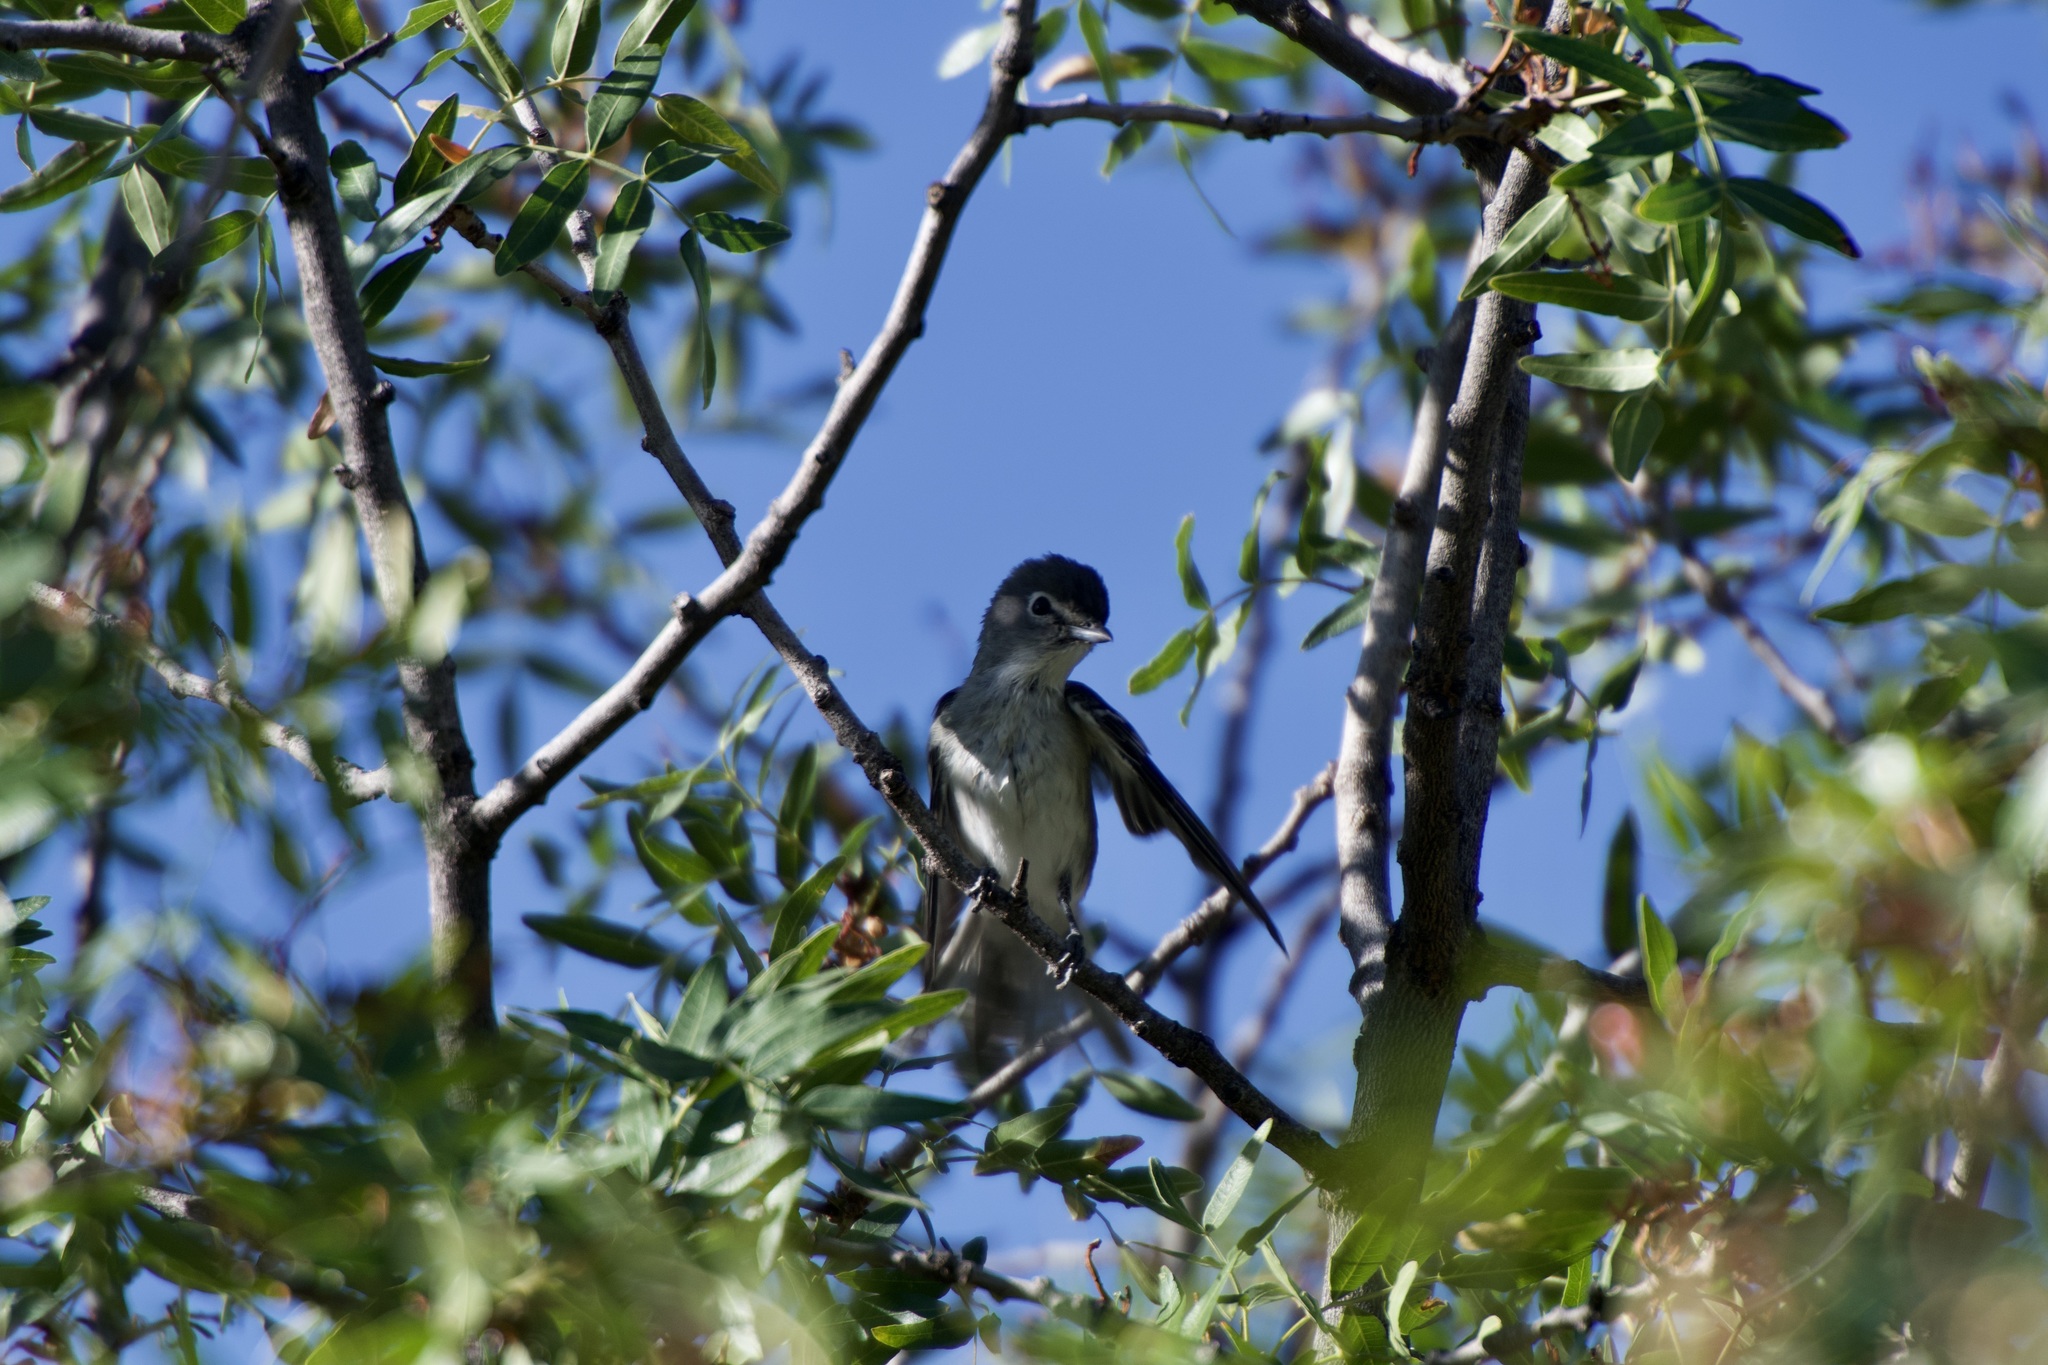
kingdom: Animalia
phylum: Chordata
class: Aves
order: Passeriformes
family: Vireonidae
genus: Vireo
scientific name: Vireo plumbeus
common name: Plumbeous vireo
